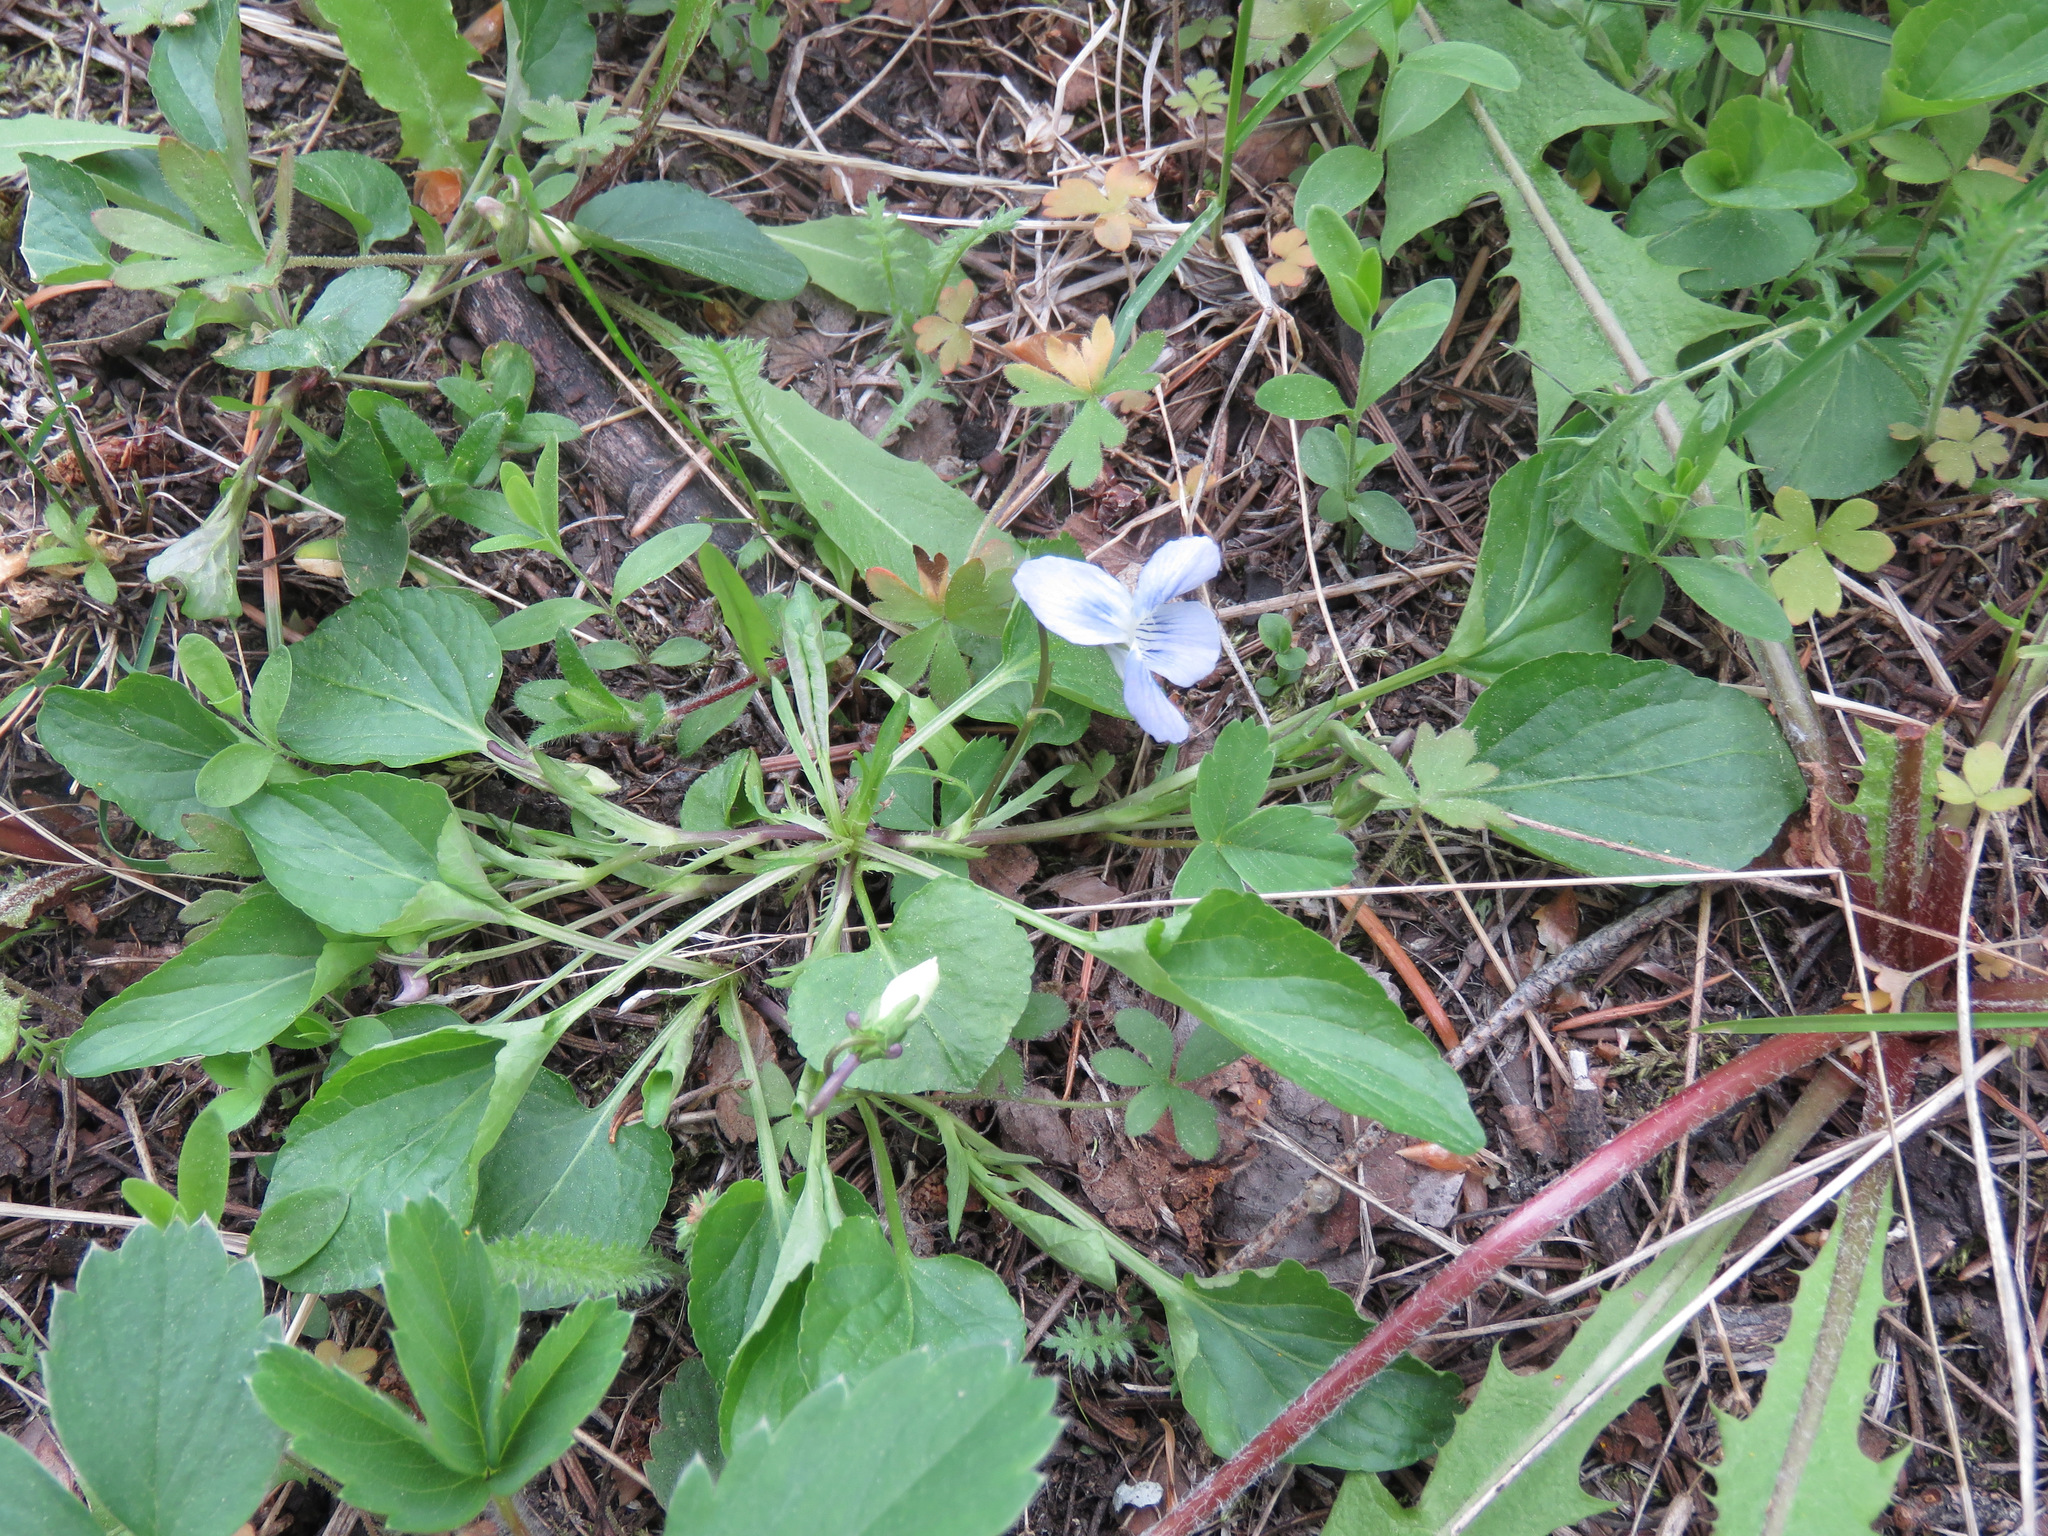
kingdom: Plantae
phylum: Tracheophyta
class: Magnoliopsida
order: Malpighiales
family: Violaceae
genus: Viola
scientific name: Viola adunca
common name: Sand violet
